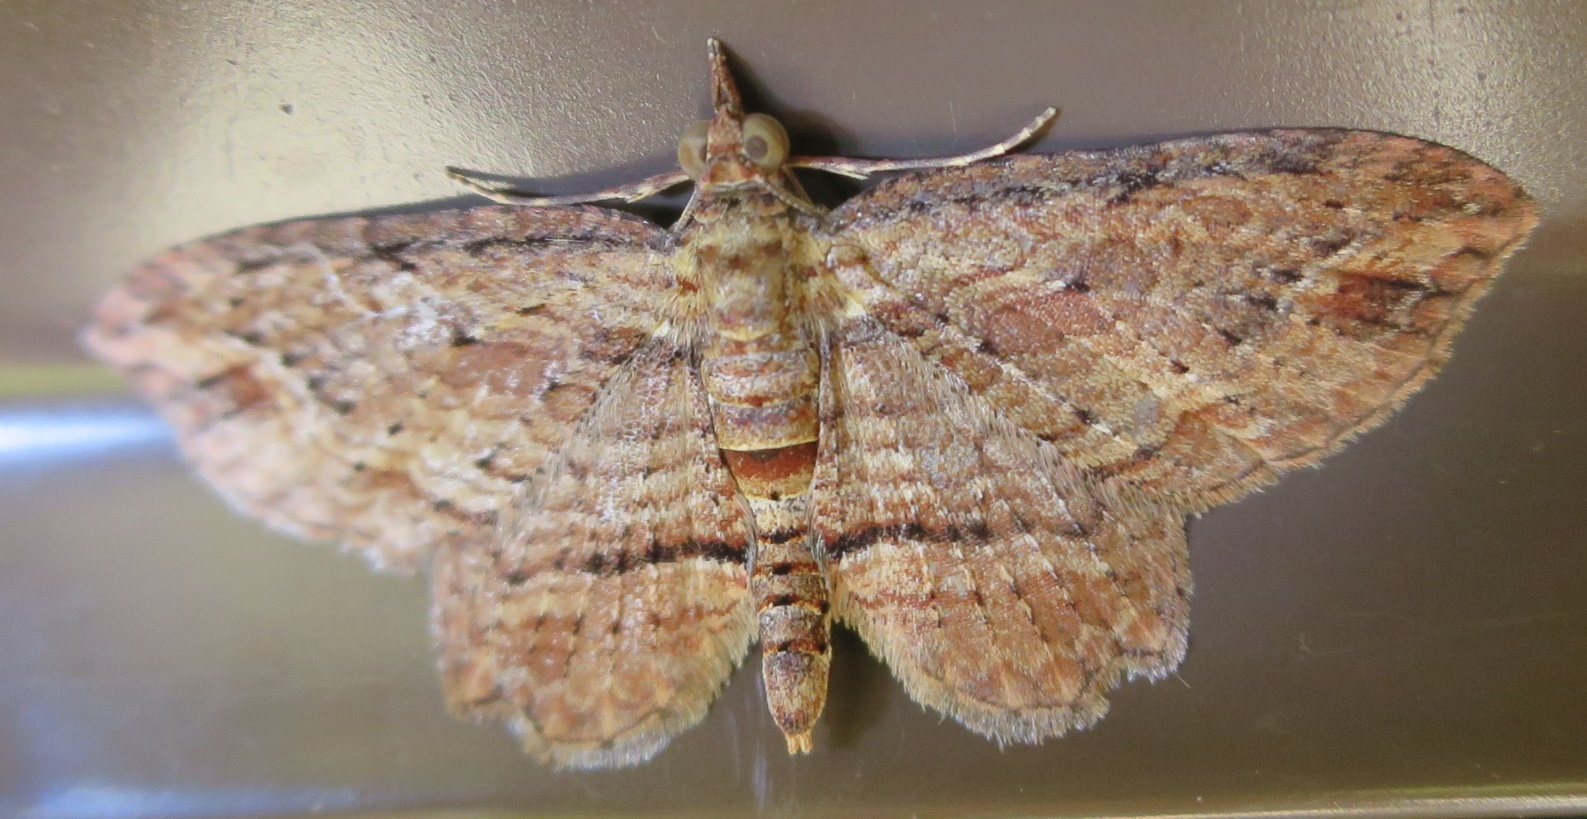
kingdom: Animalia
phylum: Arthropoda
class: Insecta
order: Lepidoptera
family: Geometridae
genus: Chloroclystis
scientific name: Chloroclystis filata
